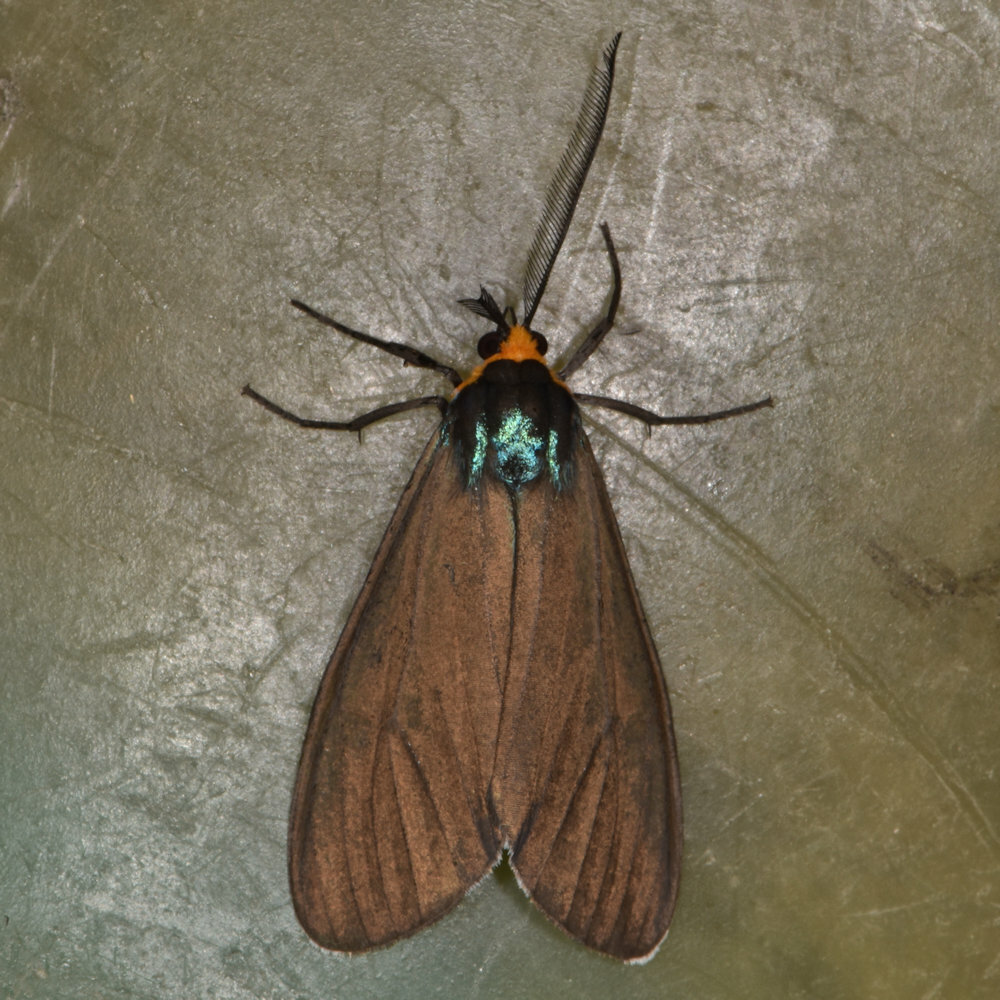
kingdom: Animalia
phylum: Arthropoda
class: Insecta
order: Lepidoptera
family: Erebidae
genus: Ctenucha
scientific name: Ctenucha virginica
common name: Virginia ctenucha moth
